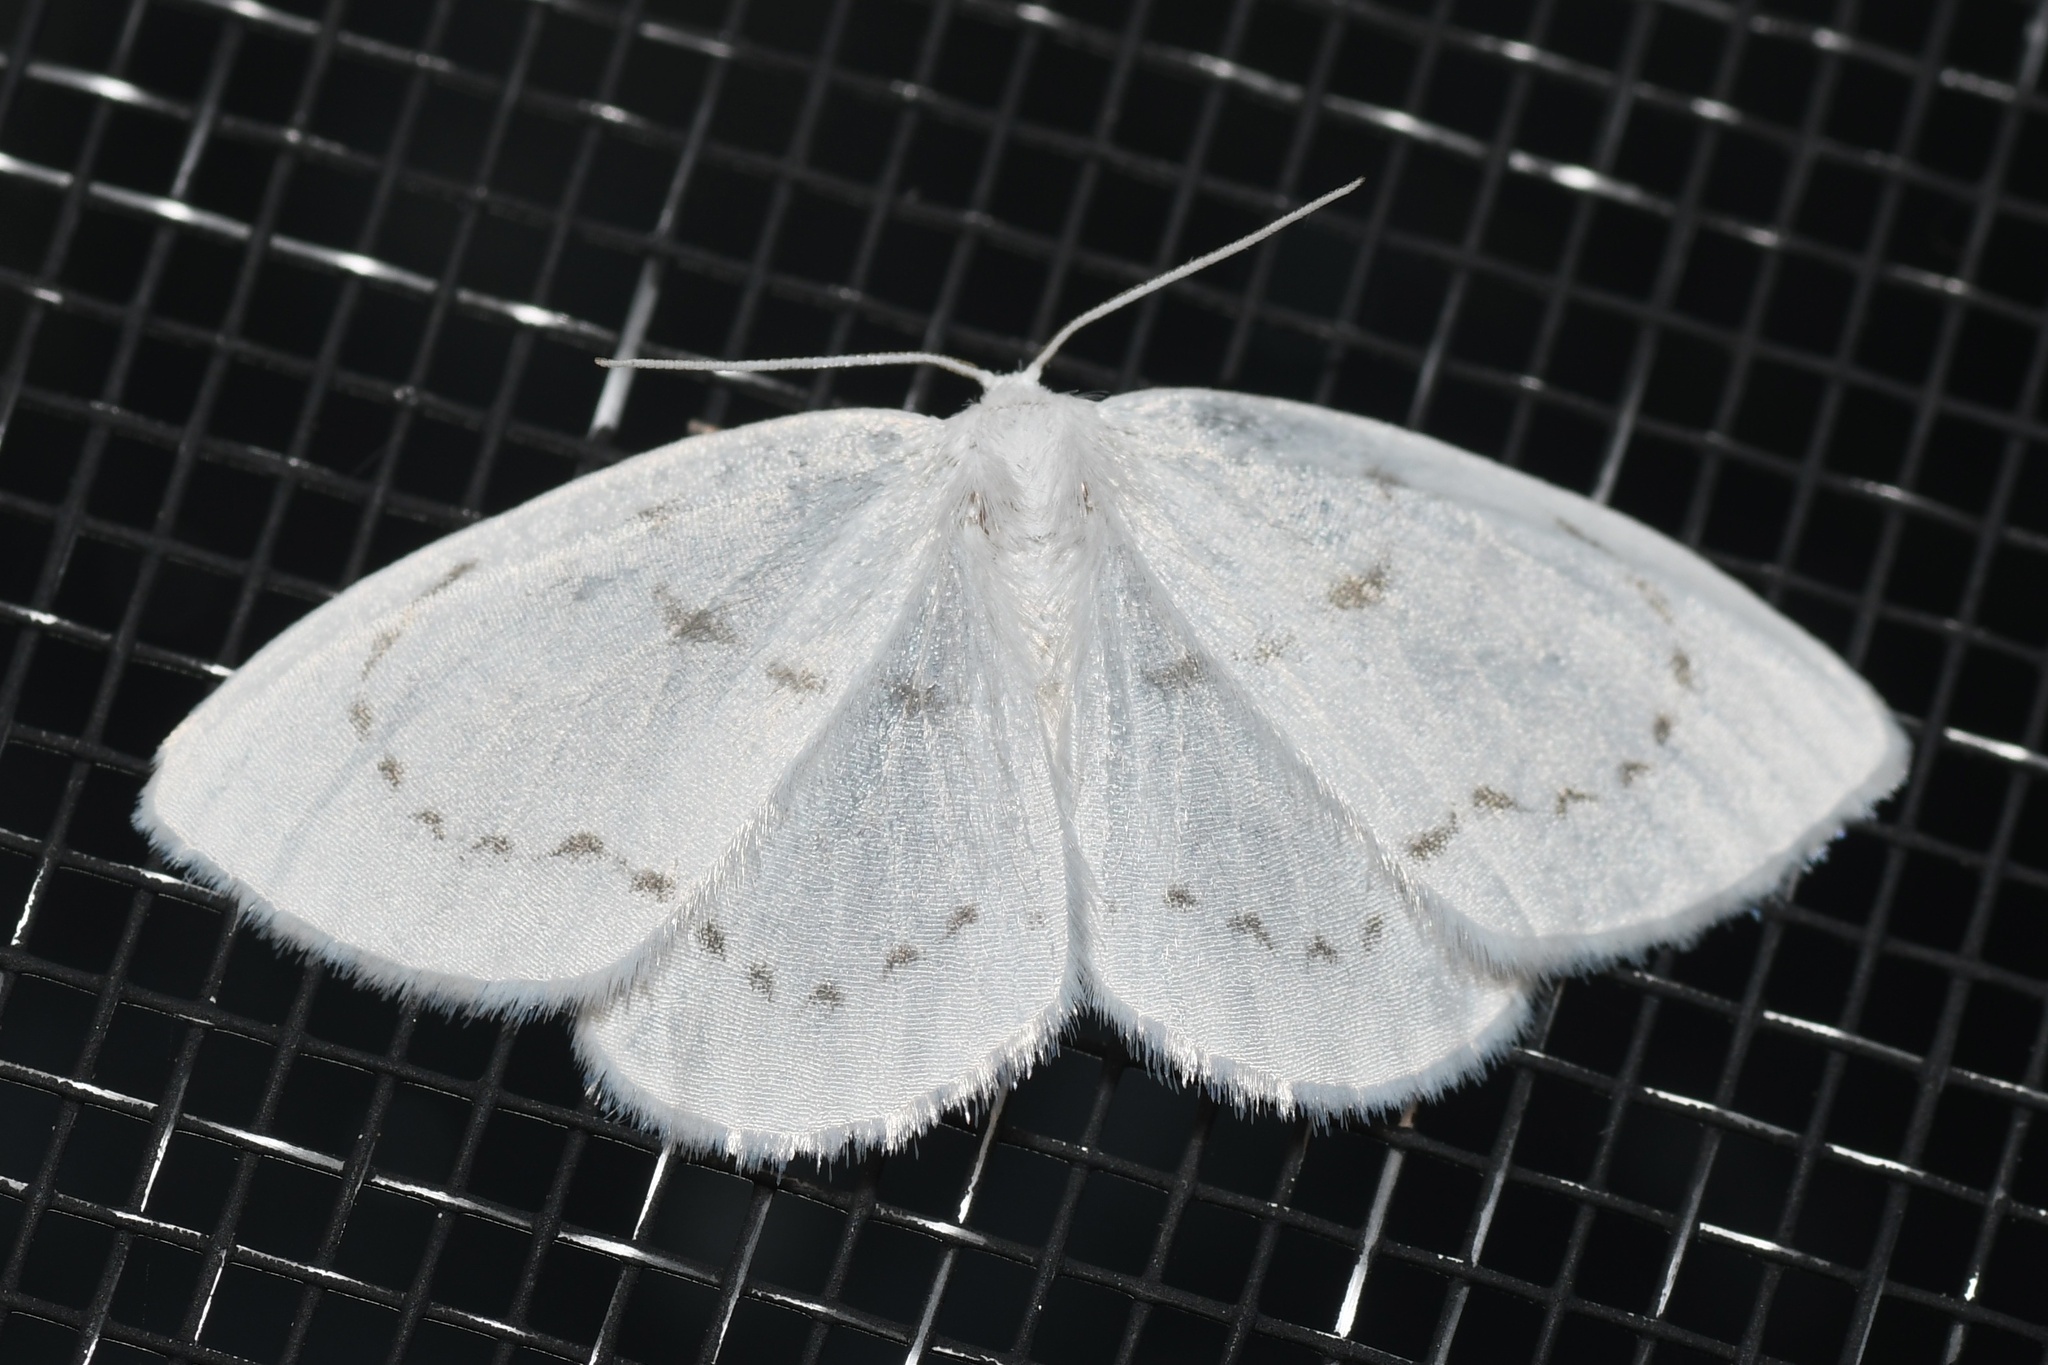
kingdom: Animalia
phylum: Arthropoda
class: Insecta
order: Lepidoptera
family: Drepanidae
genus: Eudeilinia
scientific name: Eudeilinia herminiata
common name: Northern eudeilinea moth
